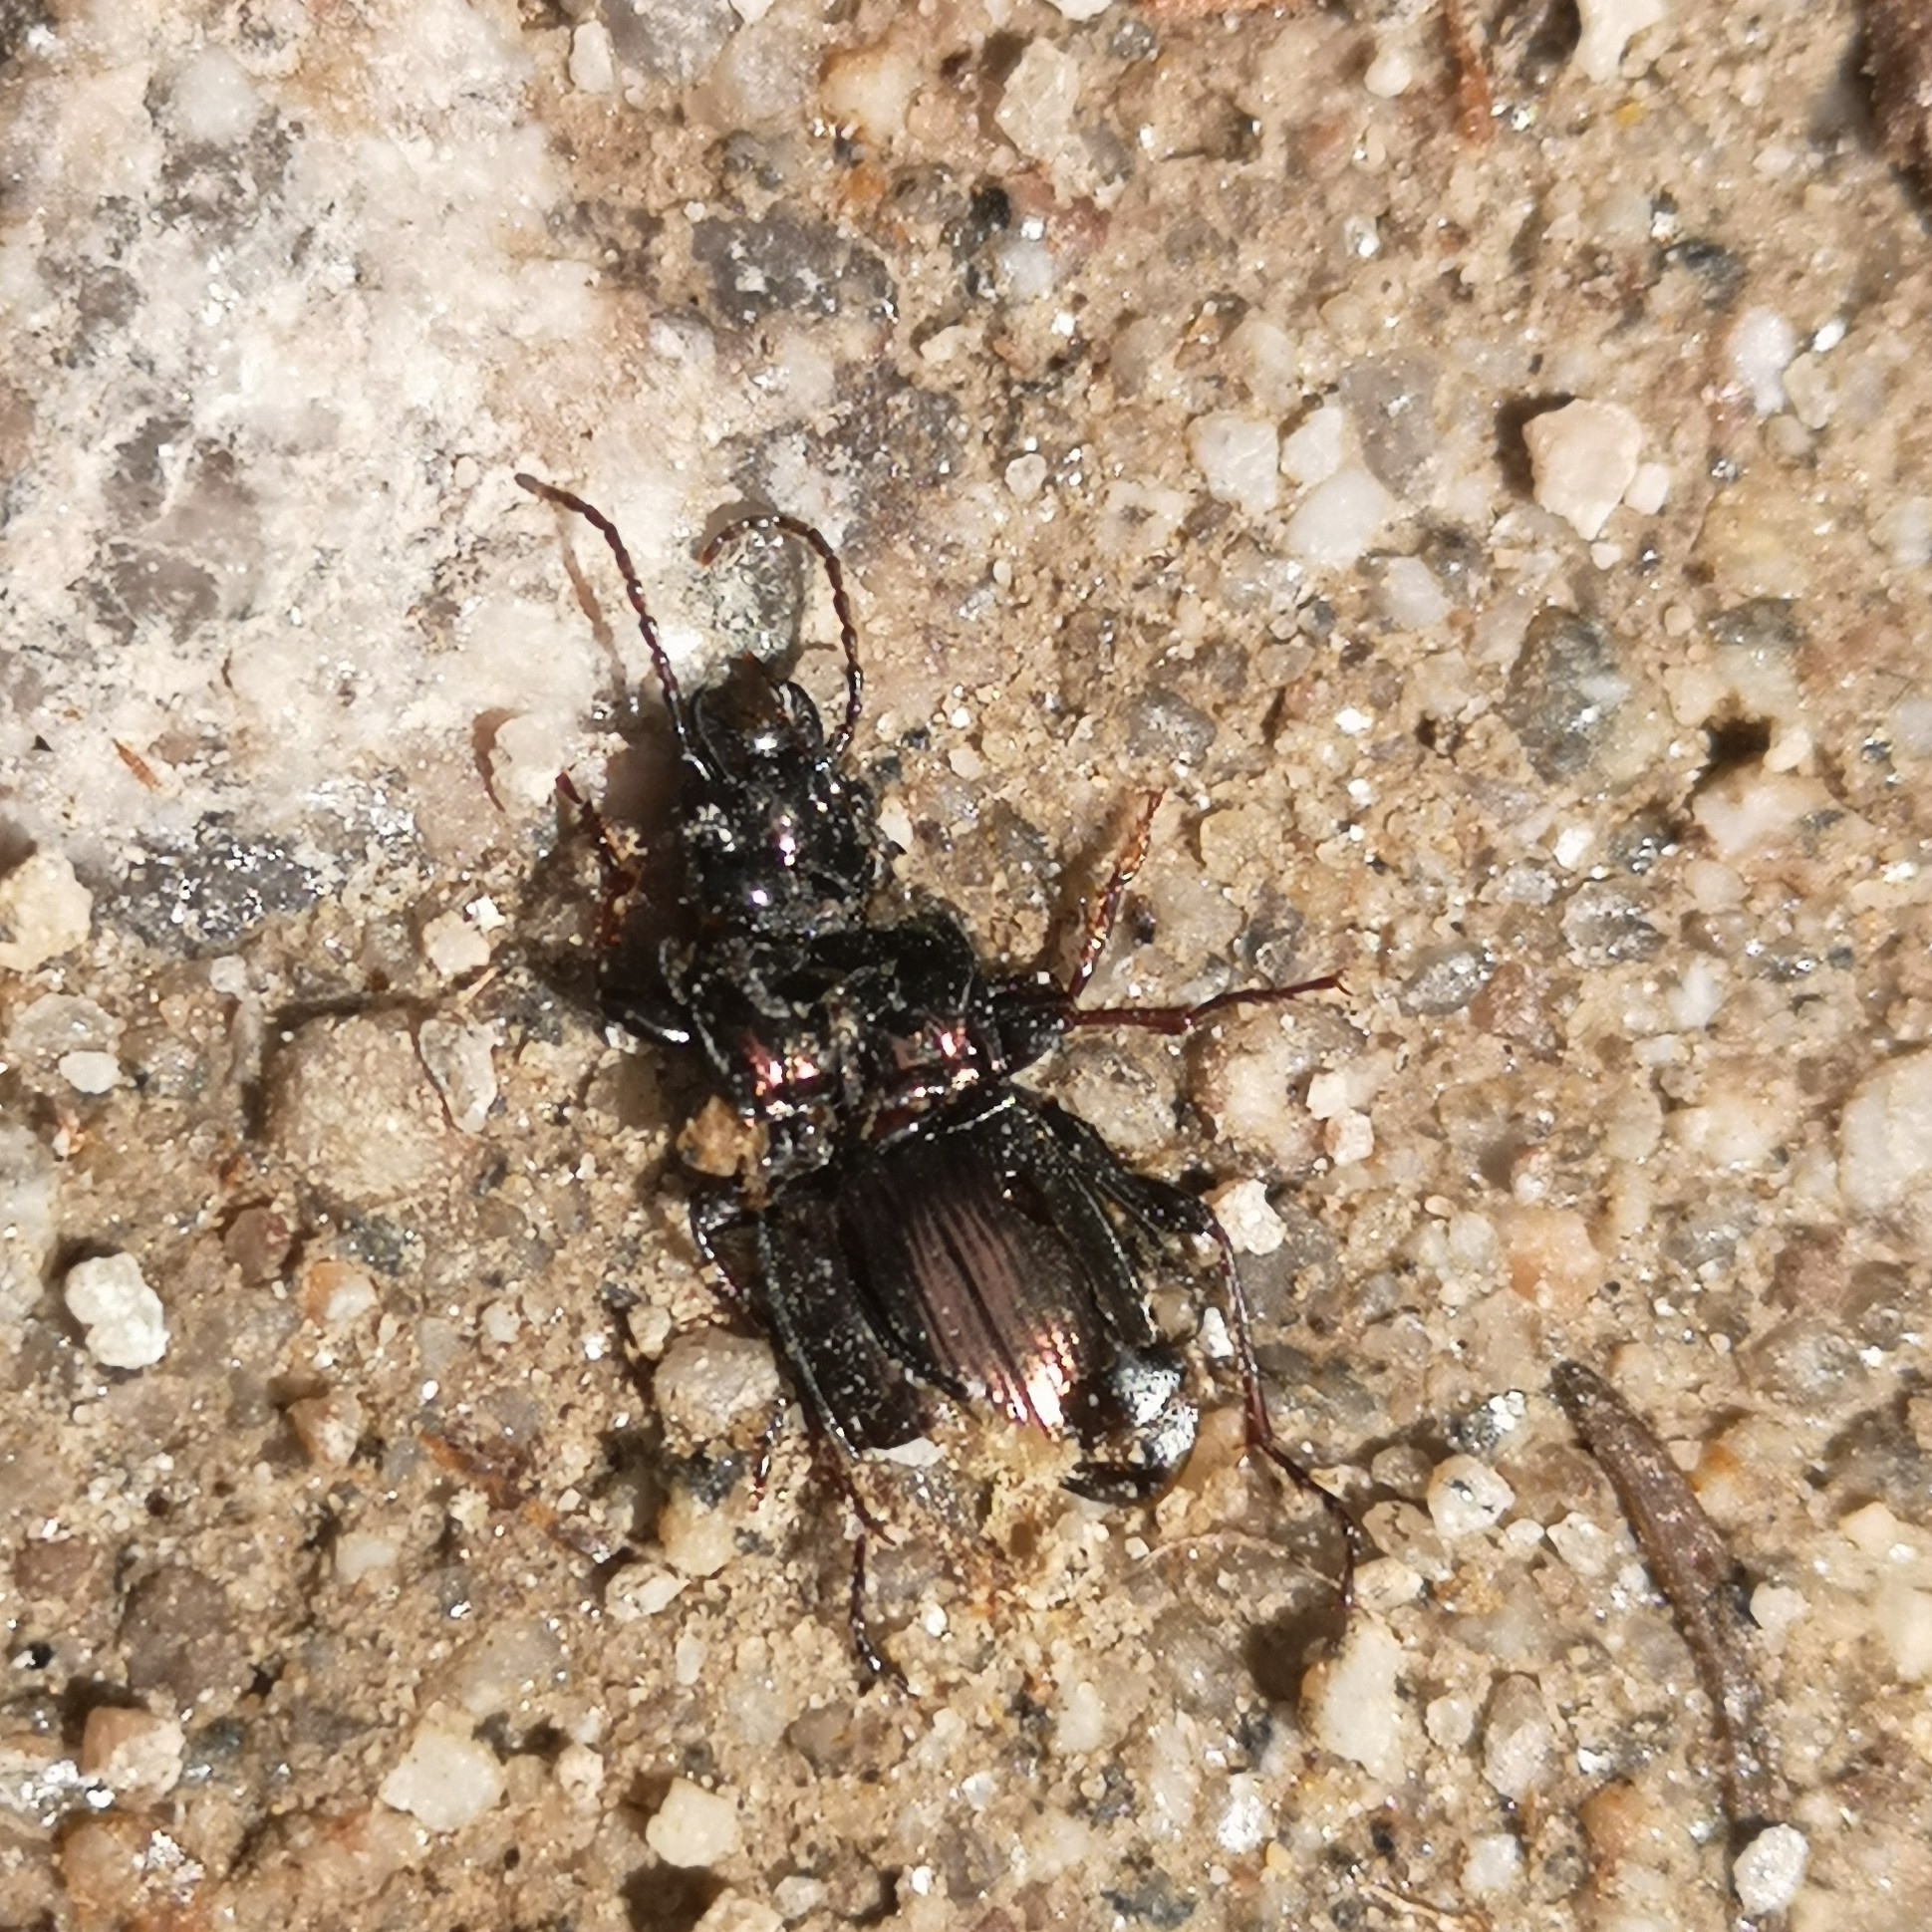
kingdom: Animalia
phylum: Arthropoda
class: Insecta
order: Coleoptera
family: Carabidae
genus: Pterostichus
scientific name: Pterostichus burmeisteri
